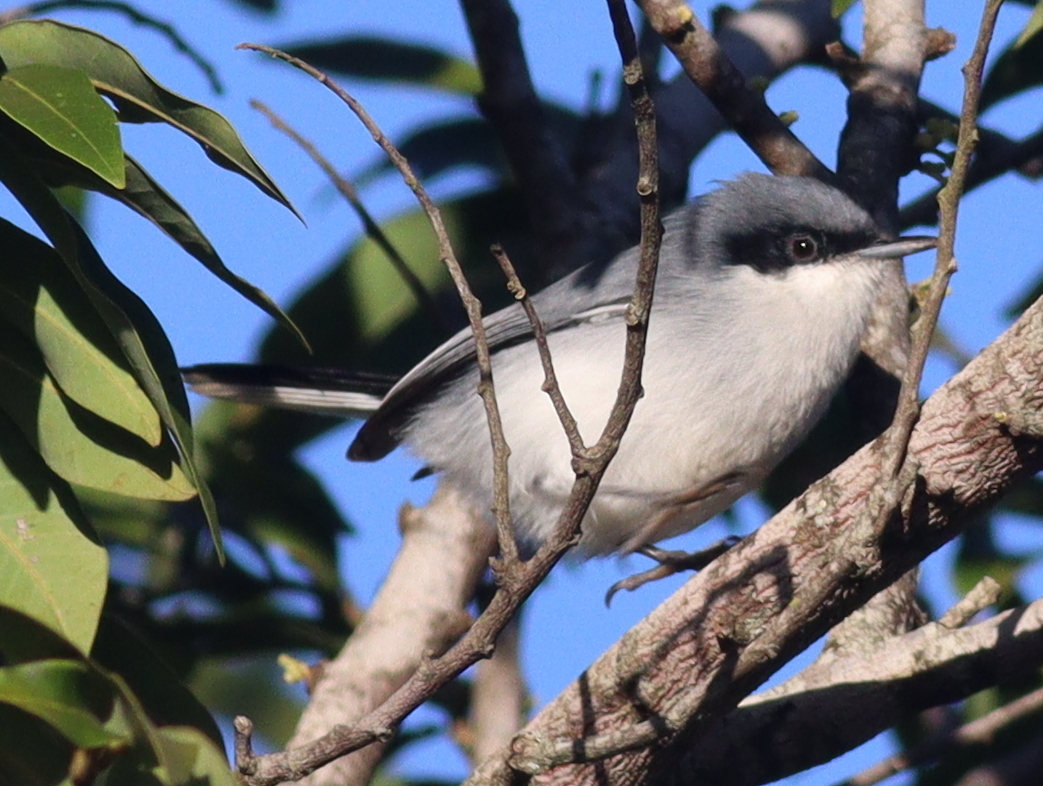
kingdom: Animalia
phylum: Chordata
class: Aves
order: Passeriformes
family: Polioptilidae
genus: Polioptila
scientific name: Polioptila dumicola
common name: Masked gnatcatcher
